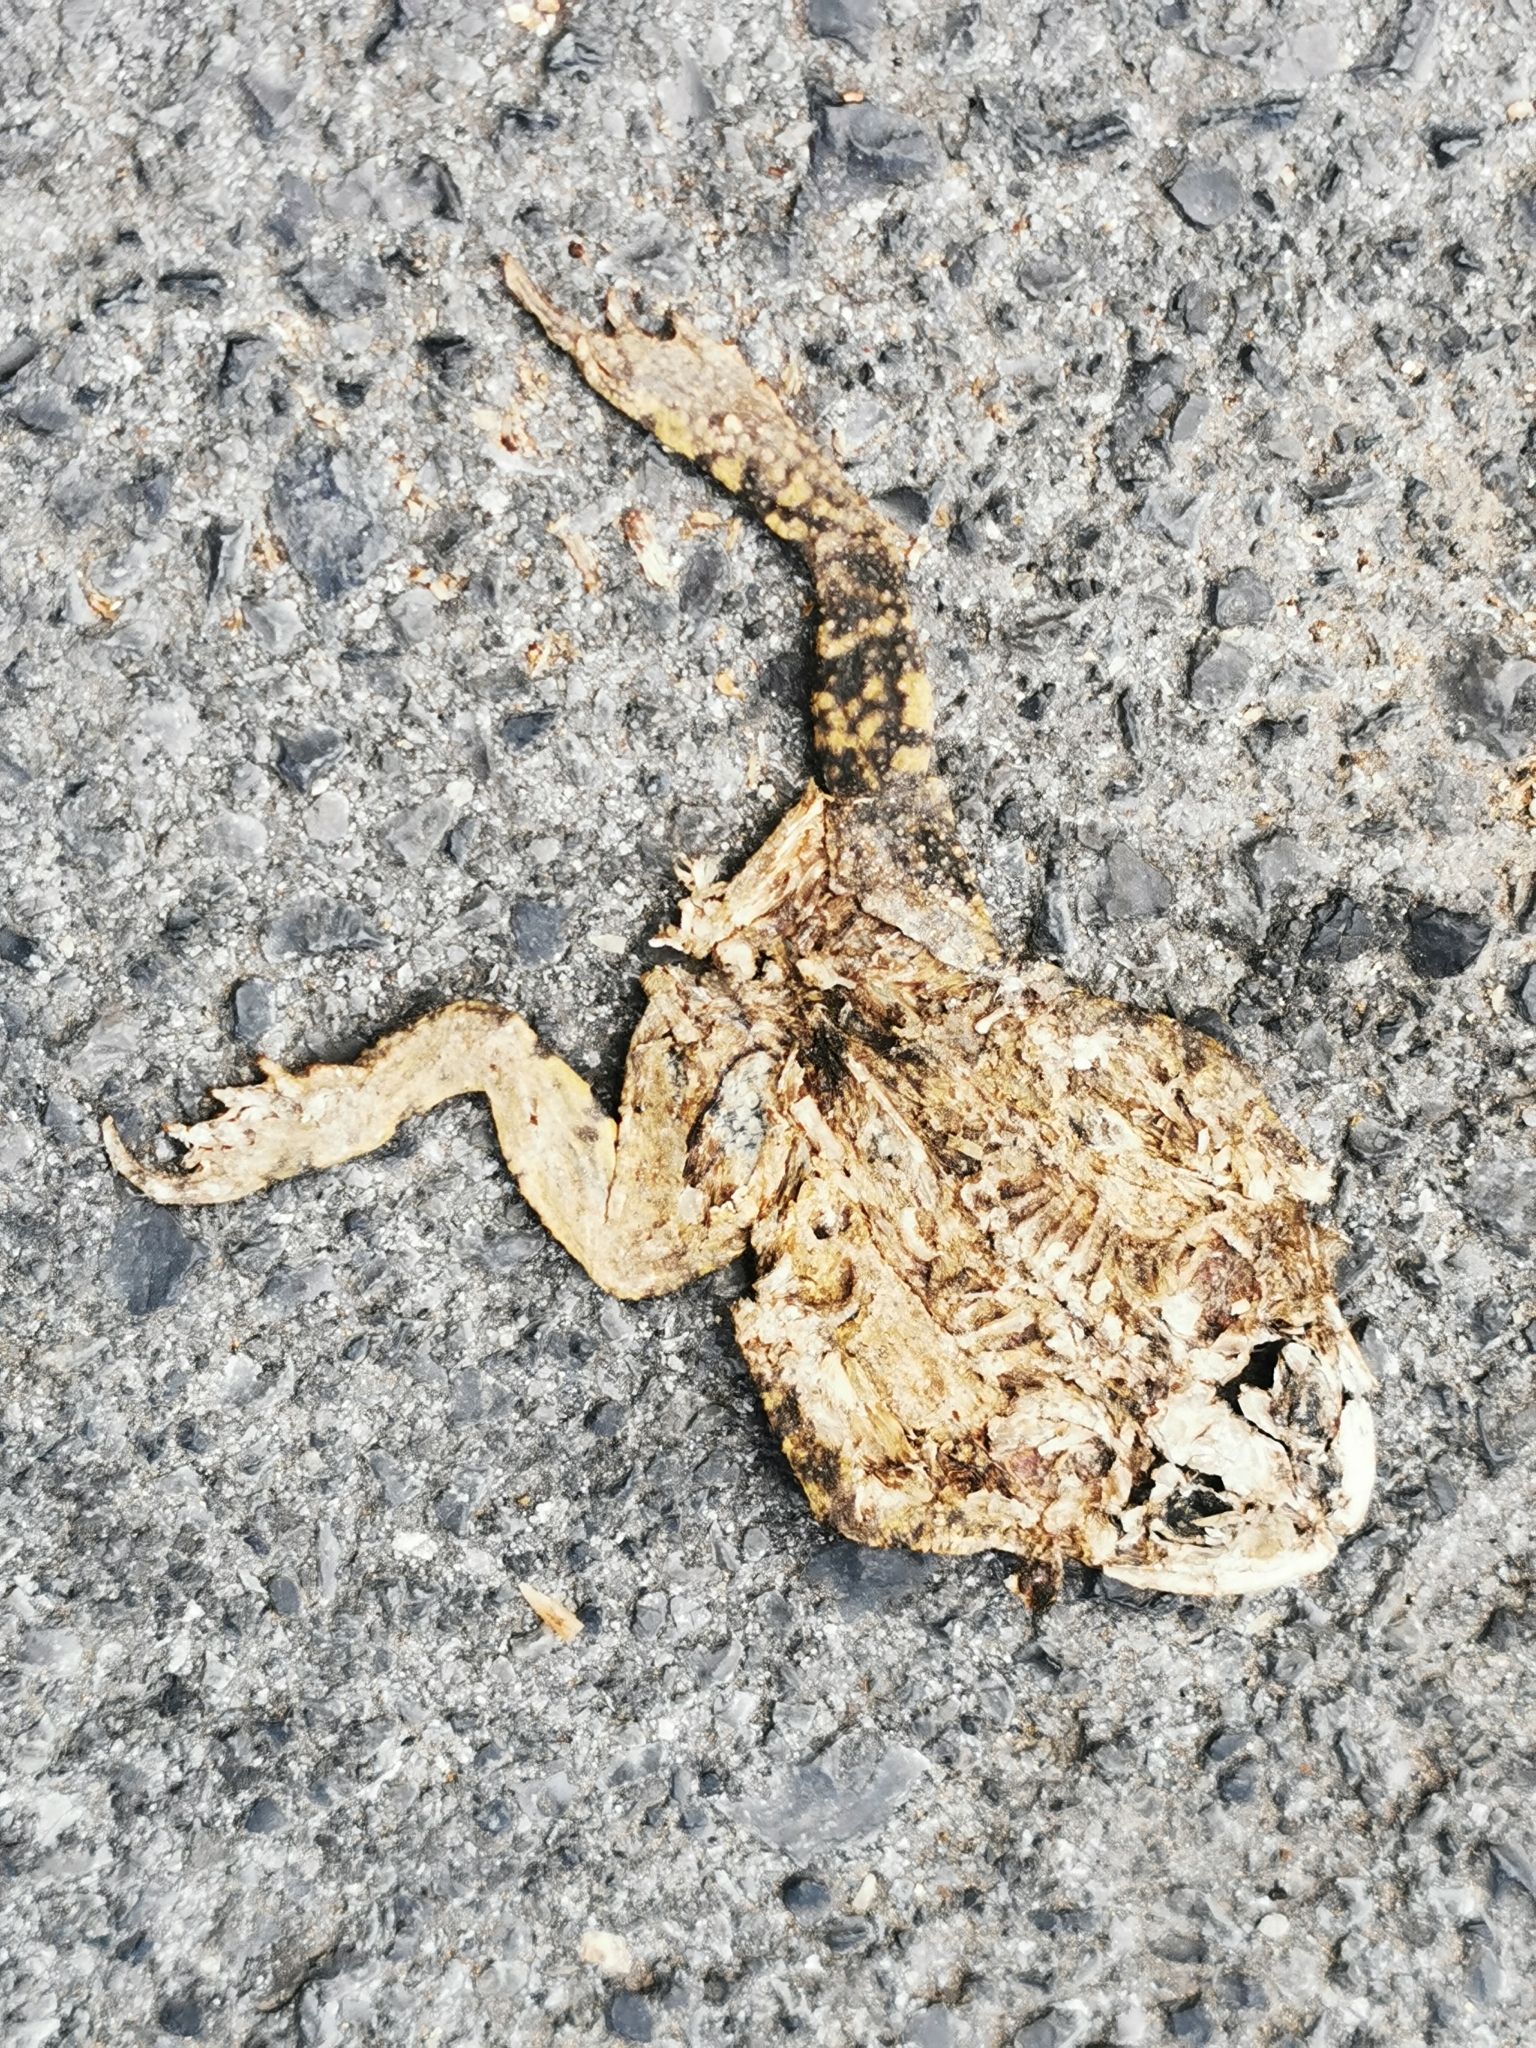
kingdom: Animalia
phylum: Chordata
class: Amphibia
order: Anura
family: Bufonidae
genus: Rhinella
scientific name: Rhinella horribilis
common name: Mesoamerican cane toad
